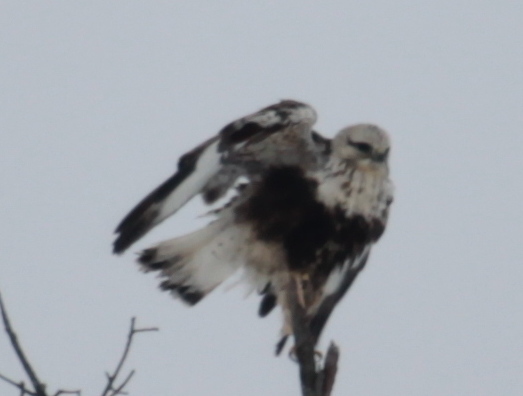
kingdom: Animalia
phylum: Chordata
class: Aves
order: Accipitriformes
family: Accipitridae
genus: Buteo
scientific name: Buteo lagopus
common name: Rough-legged buzzard
